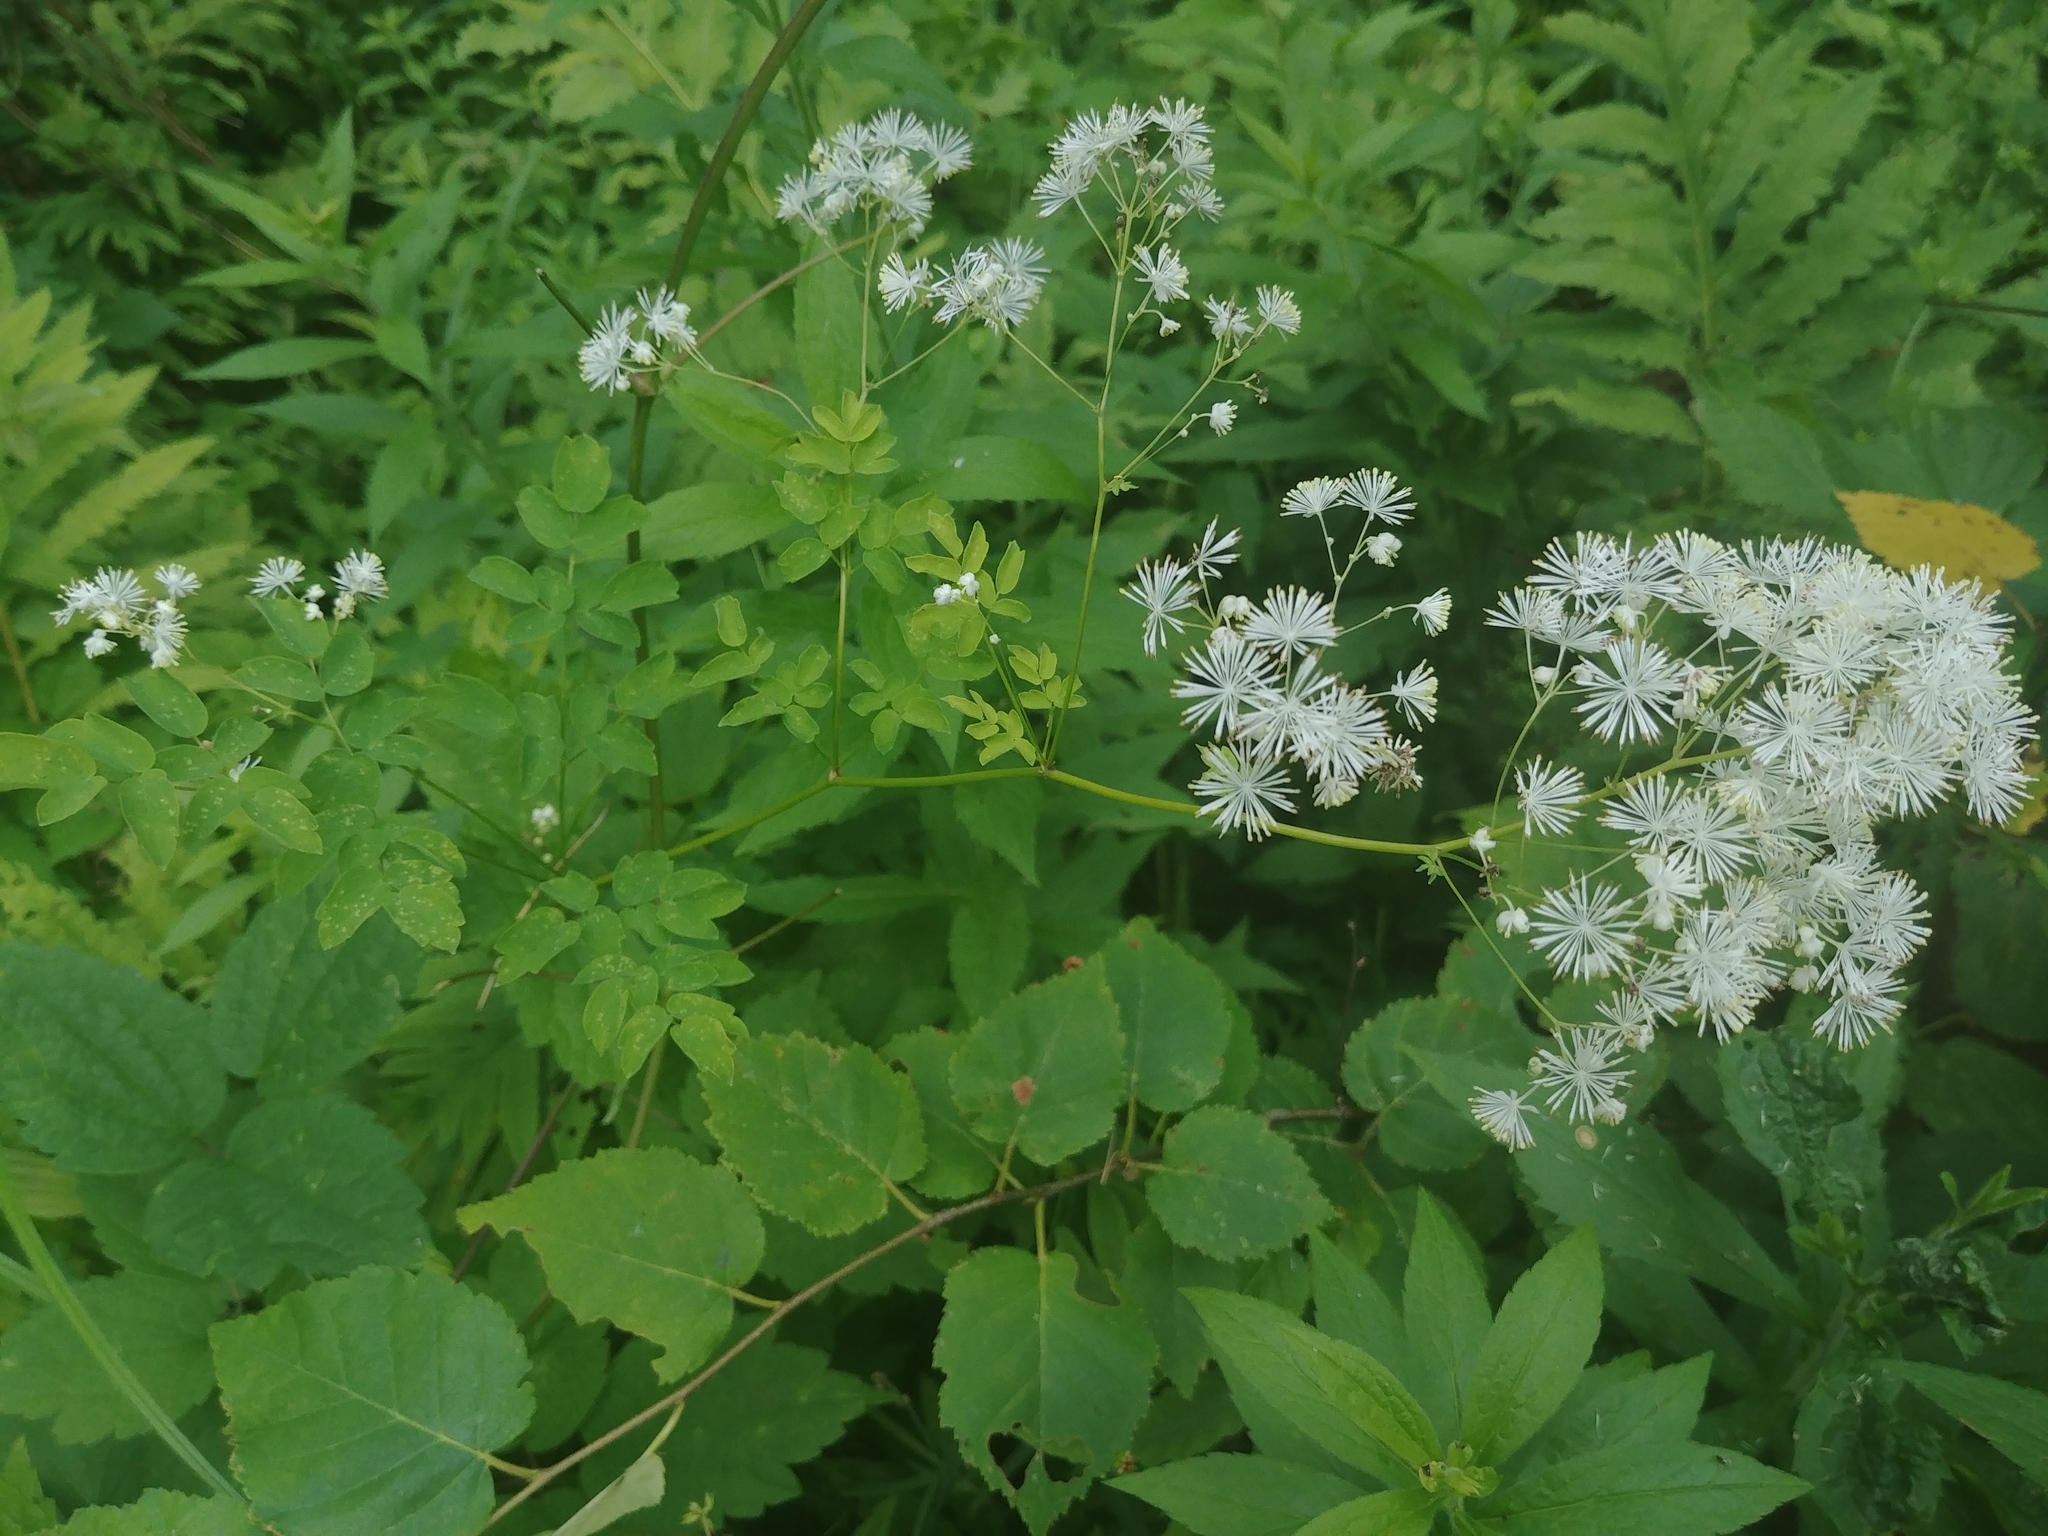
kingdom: Plantae
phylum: Tracheophyta
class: Magnoliopsida
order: Ranunculales
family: Ranunculaceae
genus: Thalictrum
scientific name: Thalictrum pubescens
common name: King-of-the-meadow
